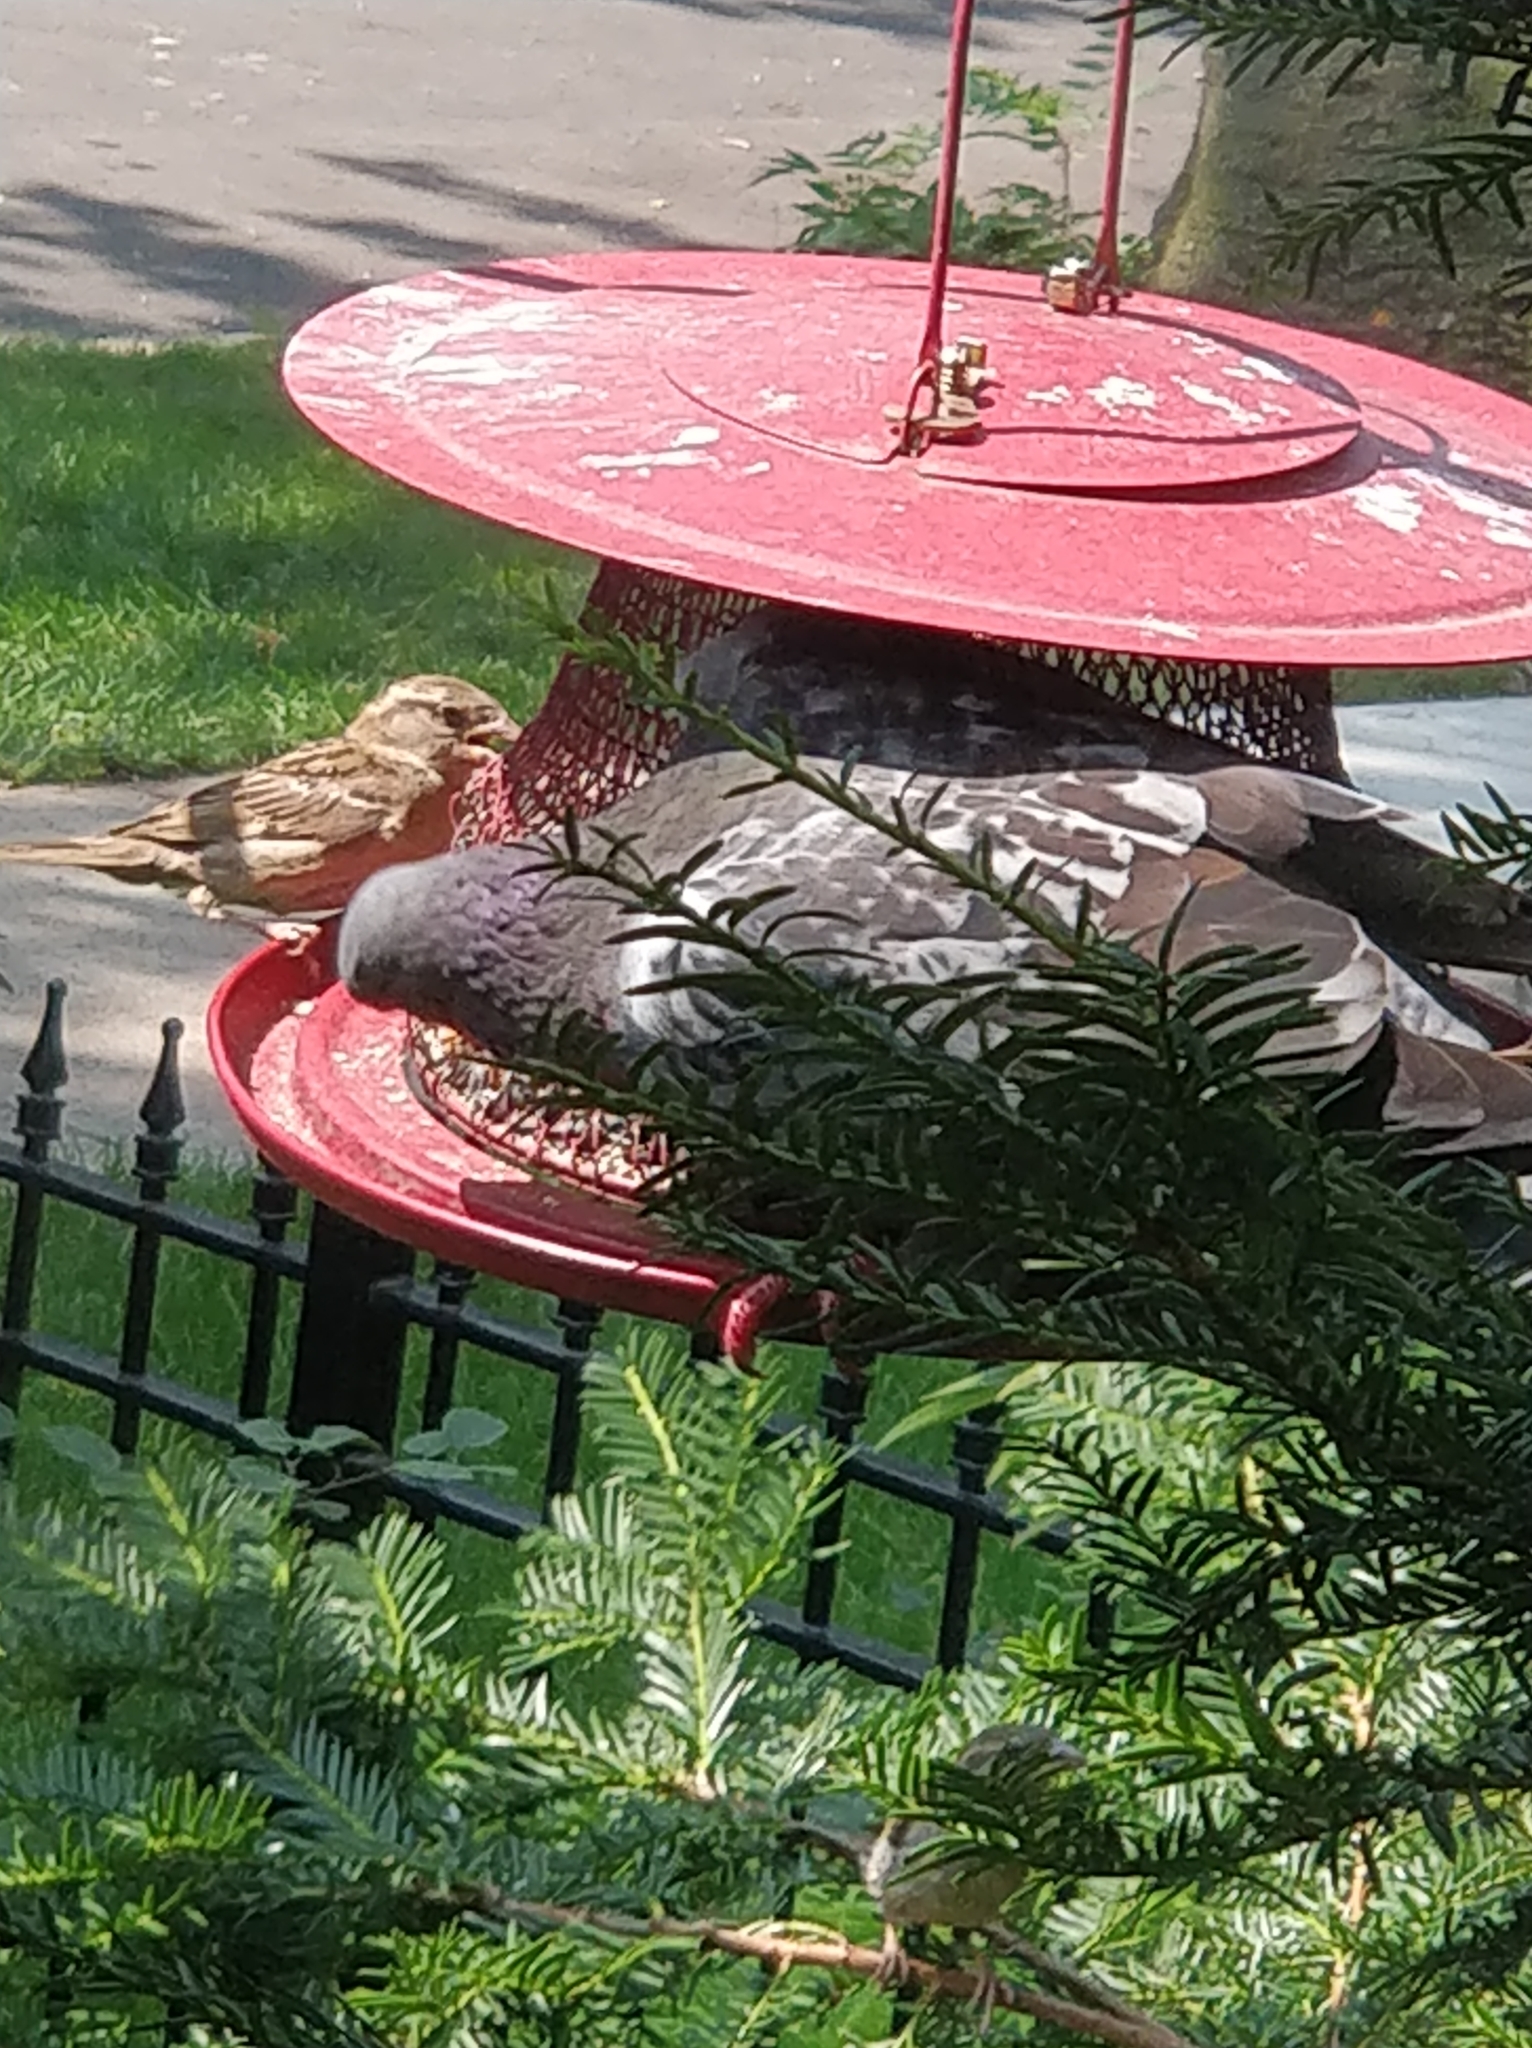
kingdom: Animalia
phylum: Chordata
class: Aves
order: Columbiformes
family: Columbidae
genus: Columba
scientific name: Columba livia
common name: Rock pigeon
